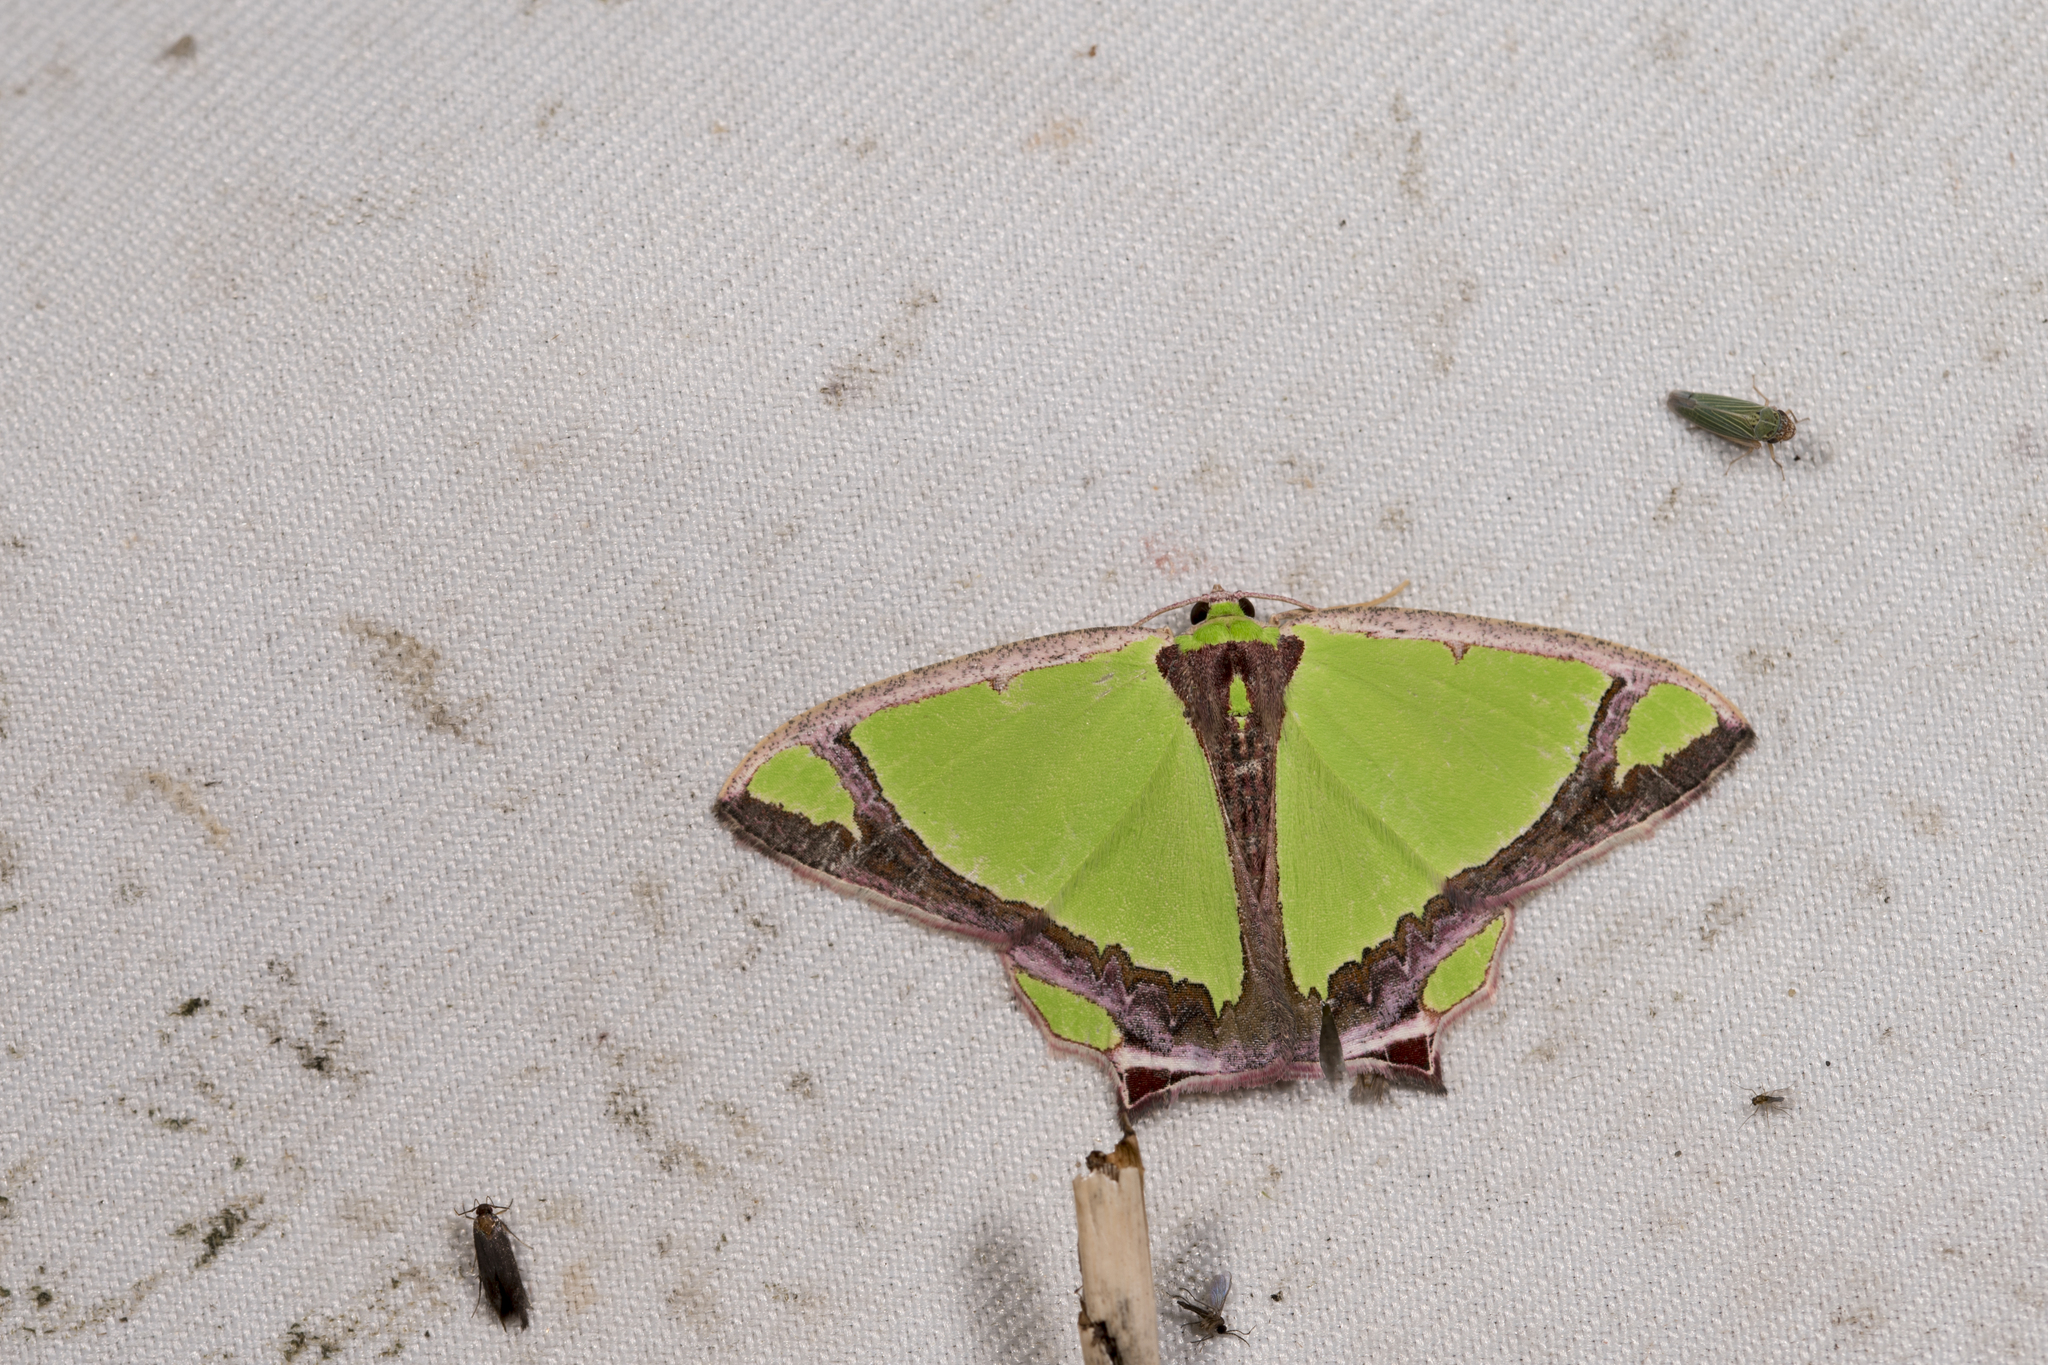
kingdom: Animalia
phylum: Arthropoda
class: Insecta
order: Lepidoptera
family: Geometridae
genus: Agathia
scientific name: Agathia laetata
